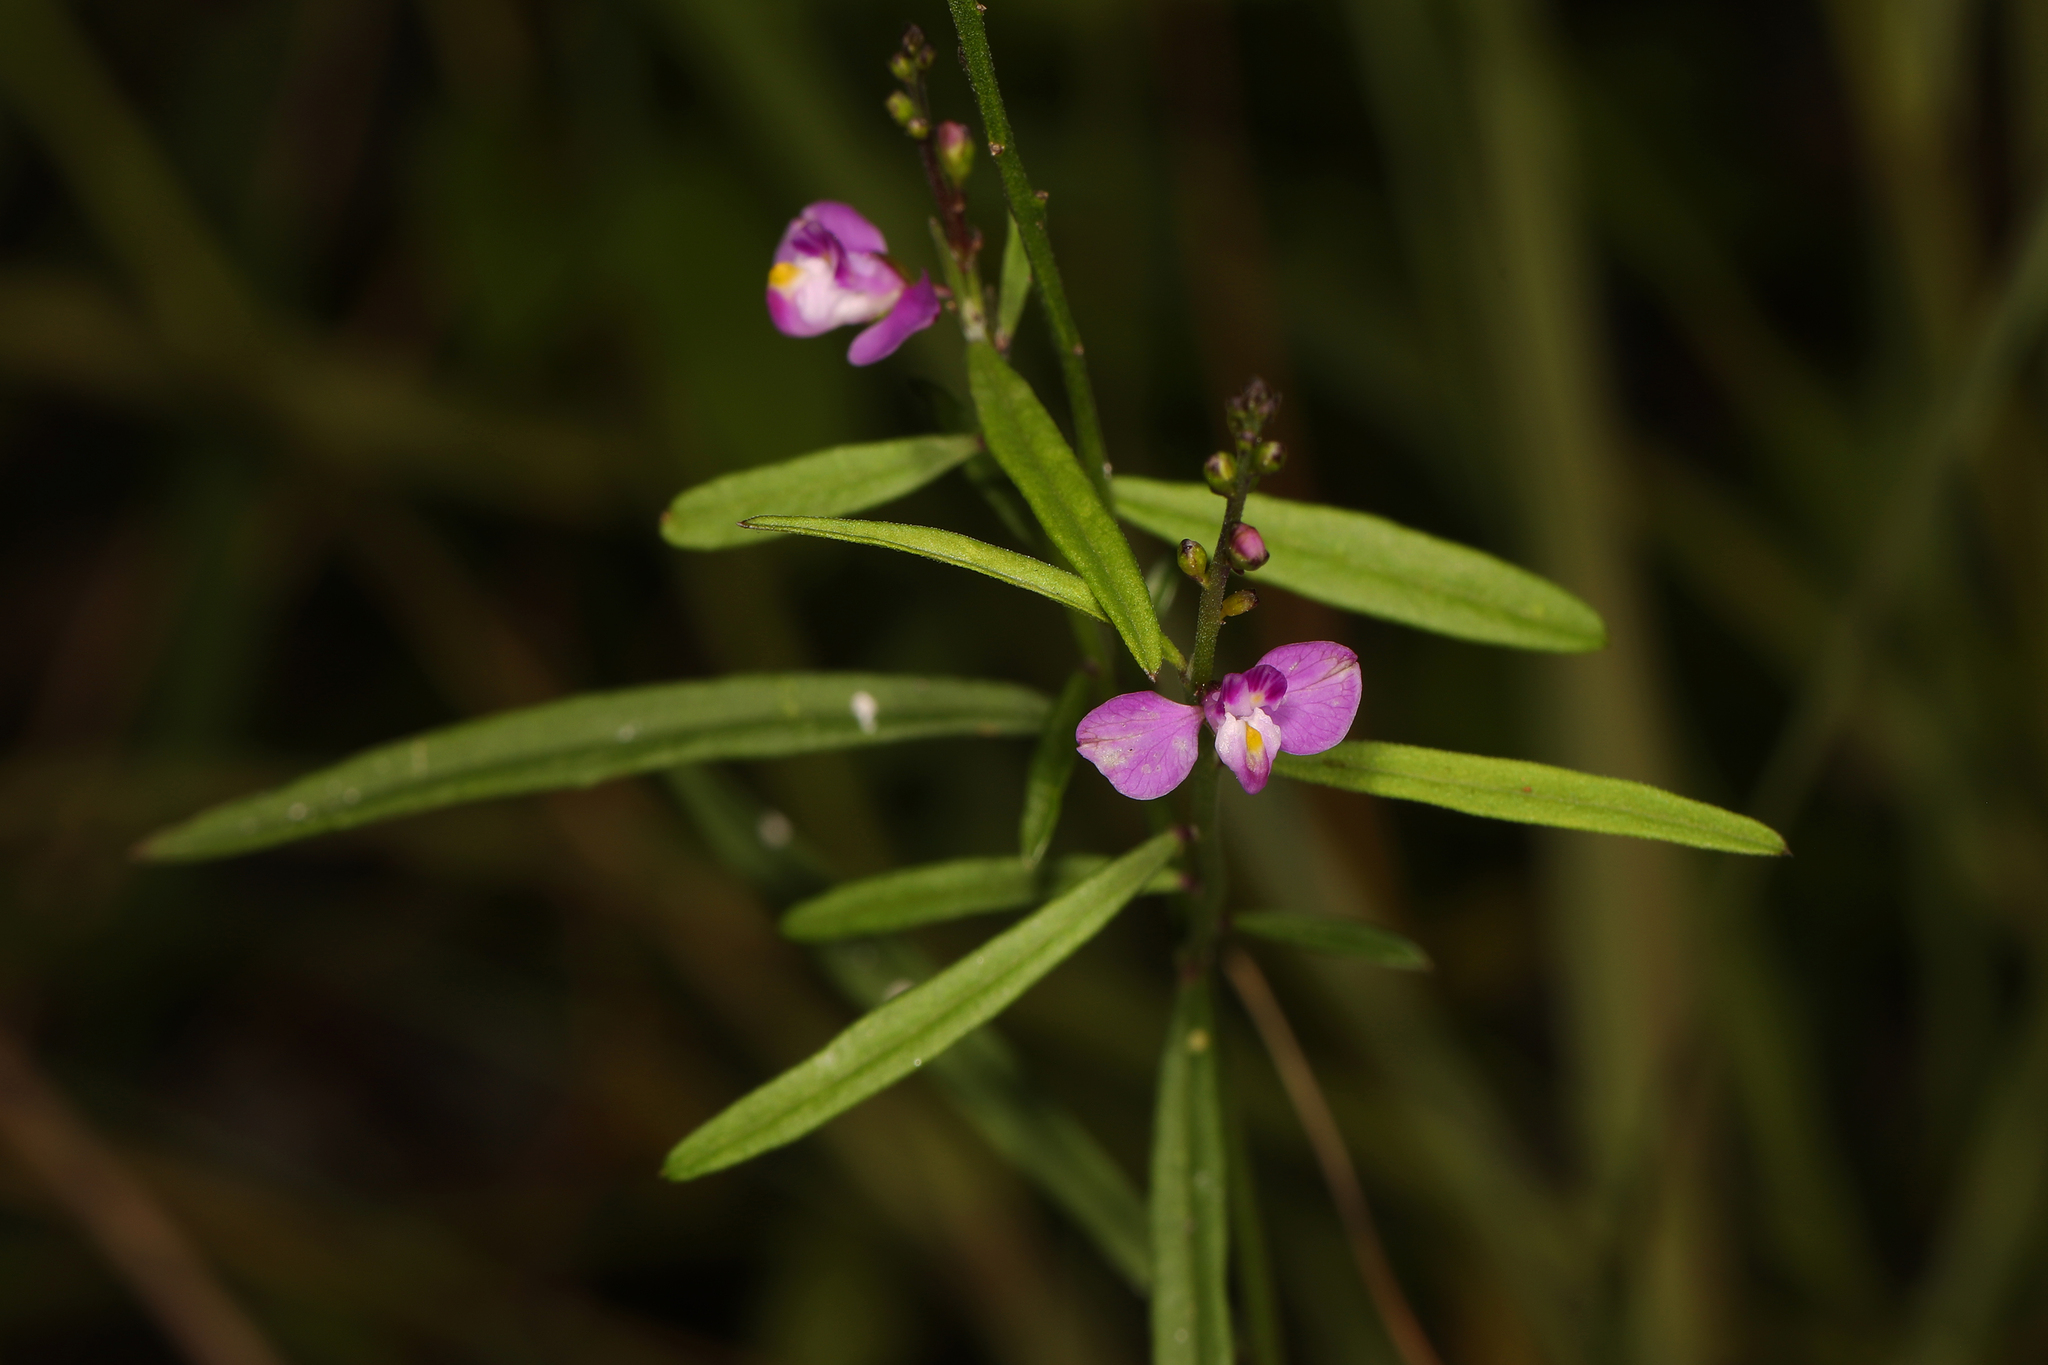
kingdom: Plantae
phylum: Tracheophyta
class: Magnoliopsida
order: Fabales
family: Polygalaceae
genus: Asemeia
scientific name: Asemeia grandiflora
